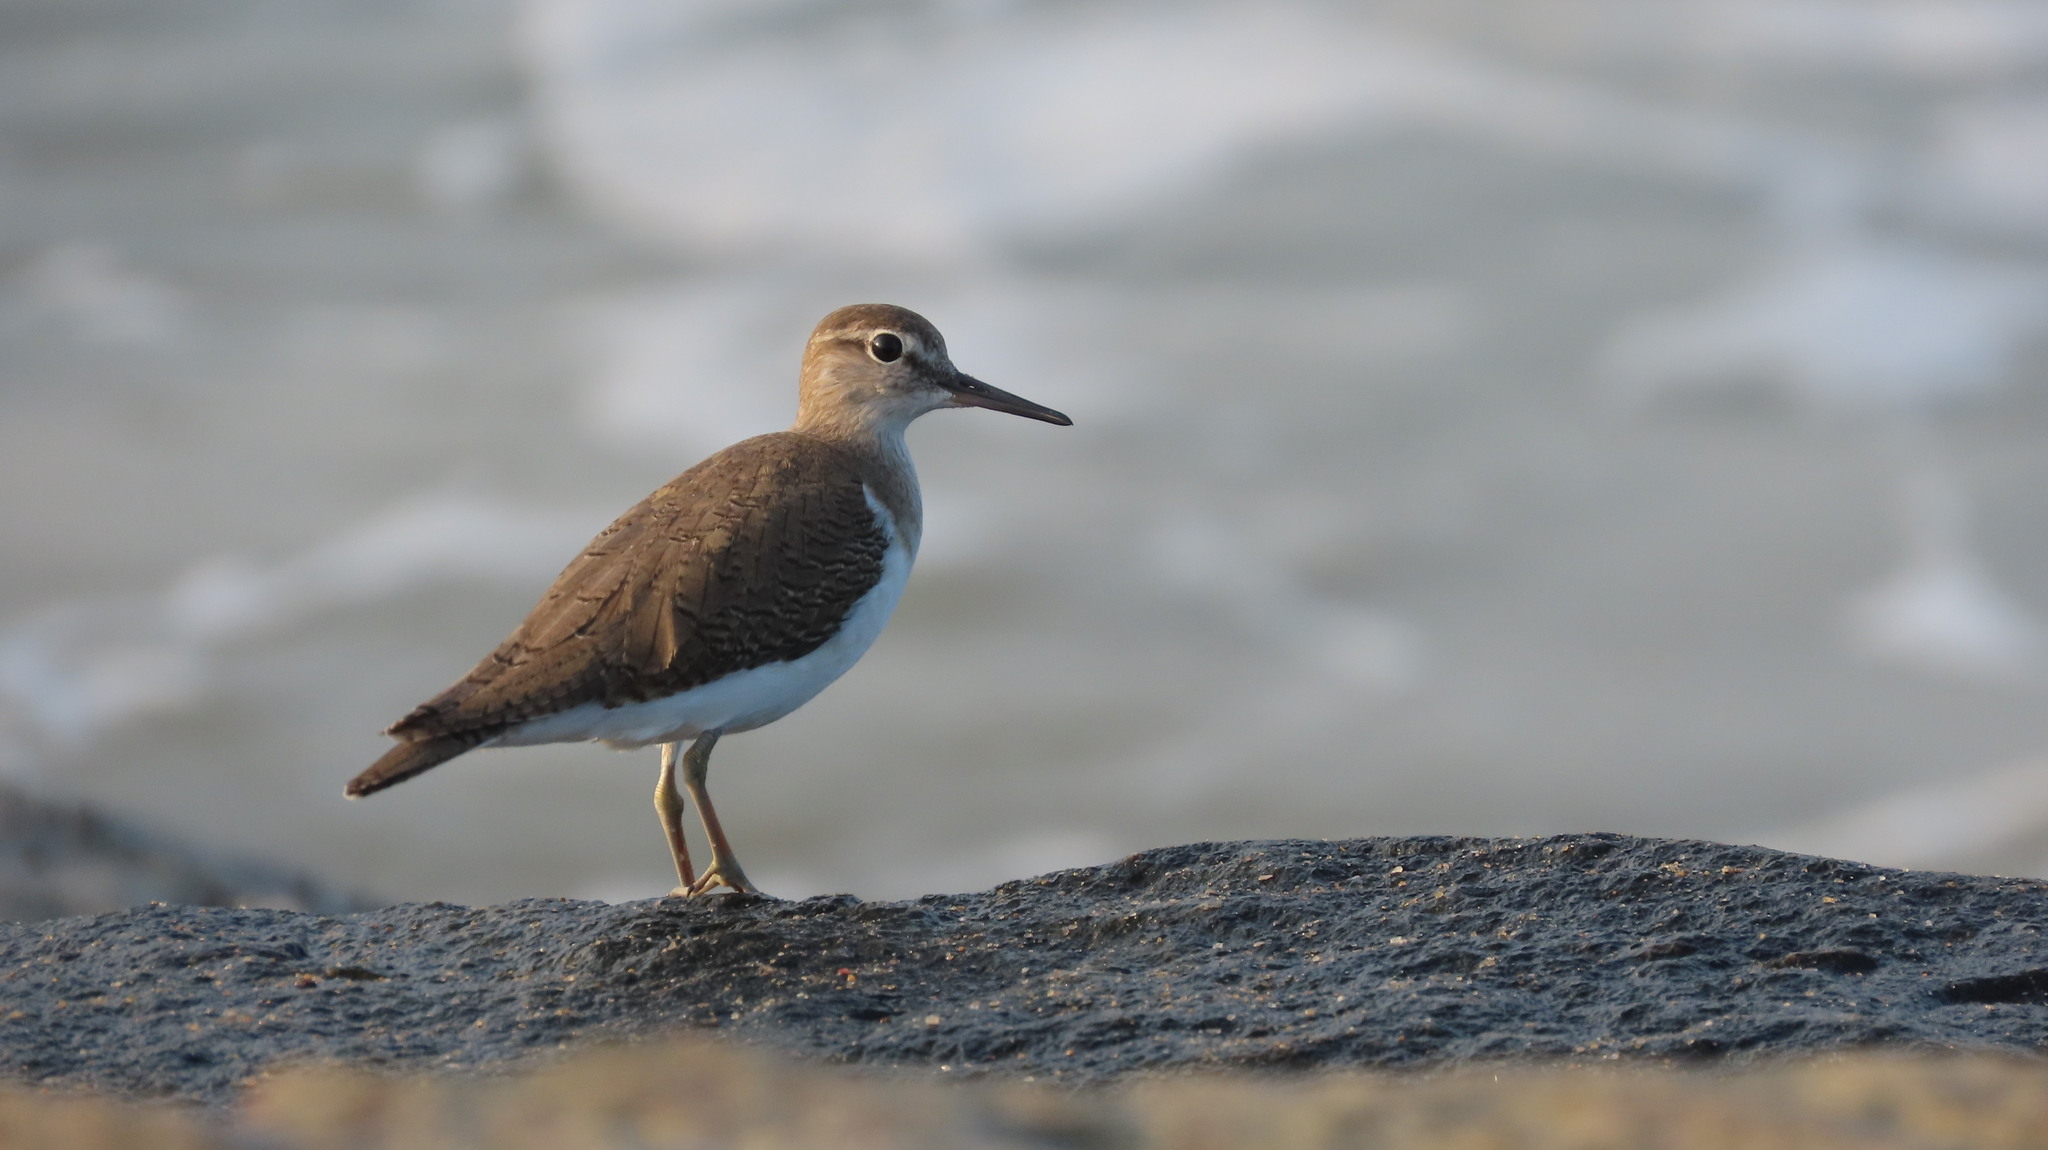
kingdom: Animalia
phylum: Chordata
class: Aves
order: Charadriiformes
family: Scolopacidae
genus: Actitis
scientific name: Actitis hypoleucos
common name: Common sandpiper
